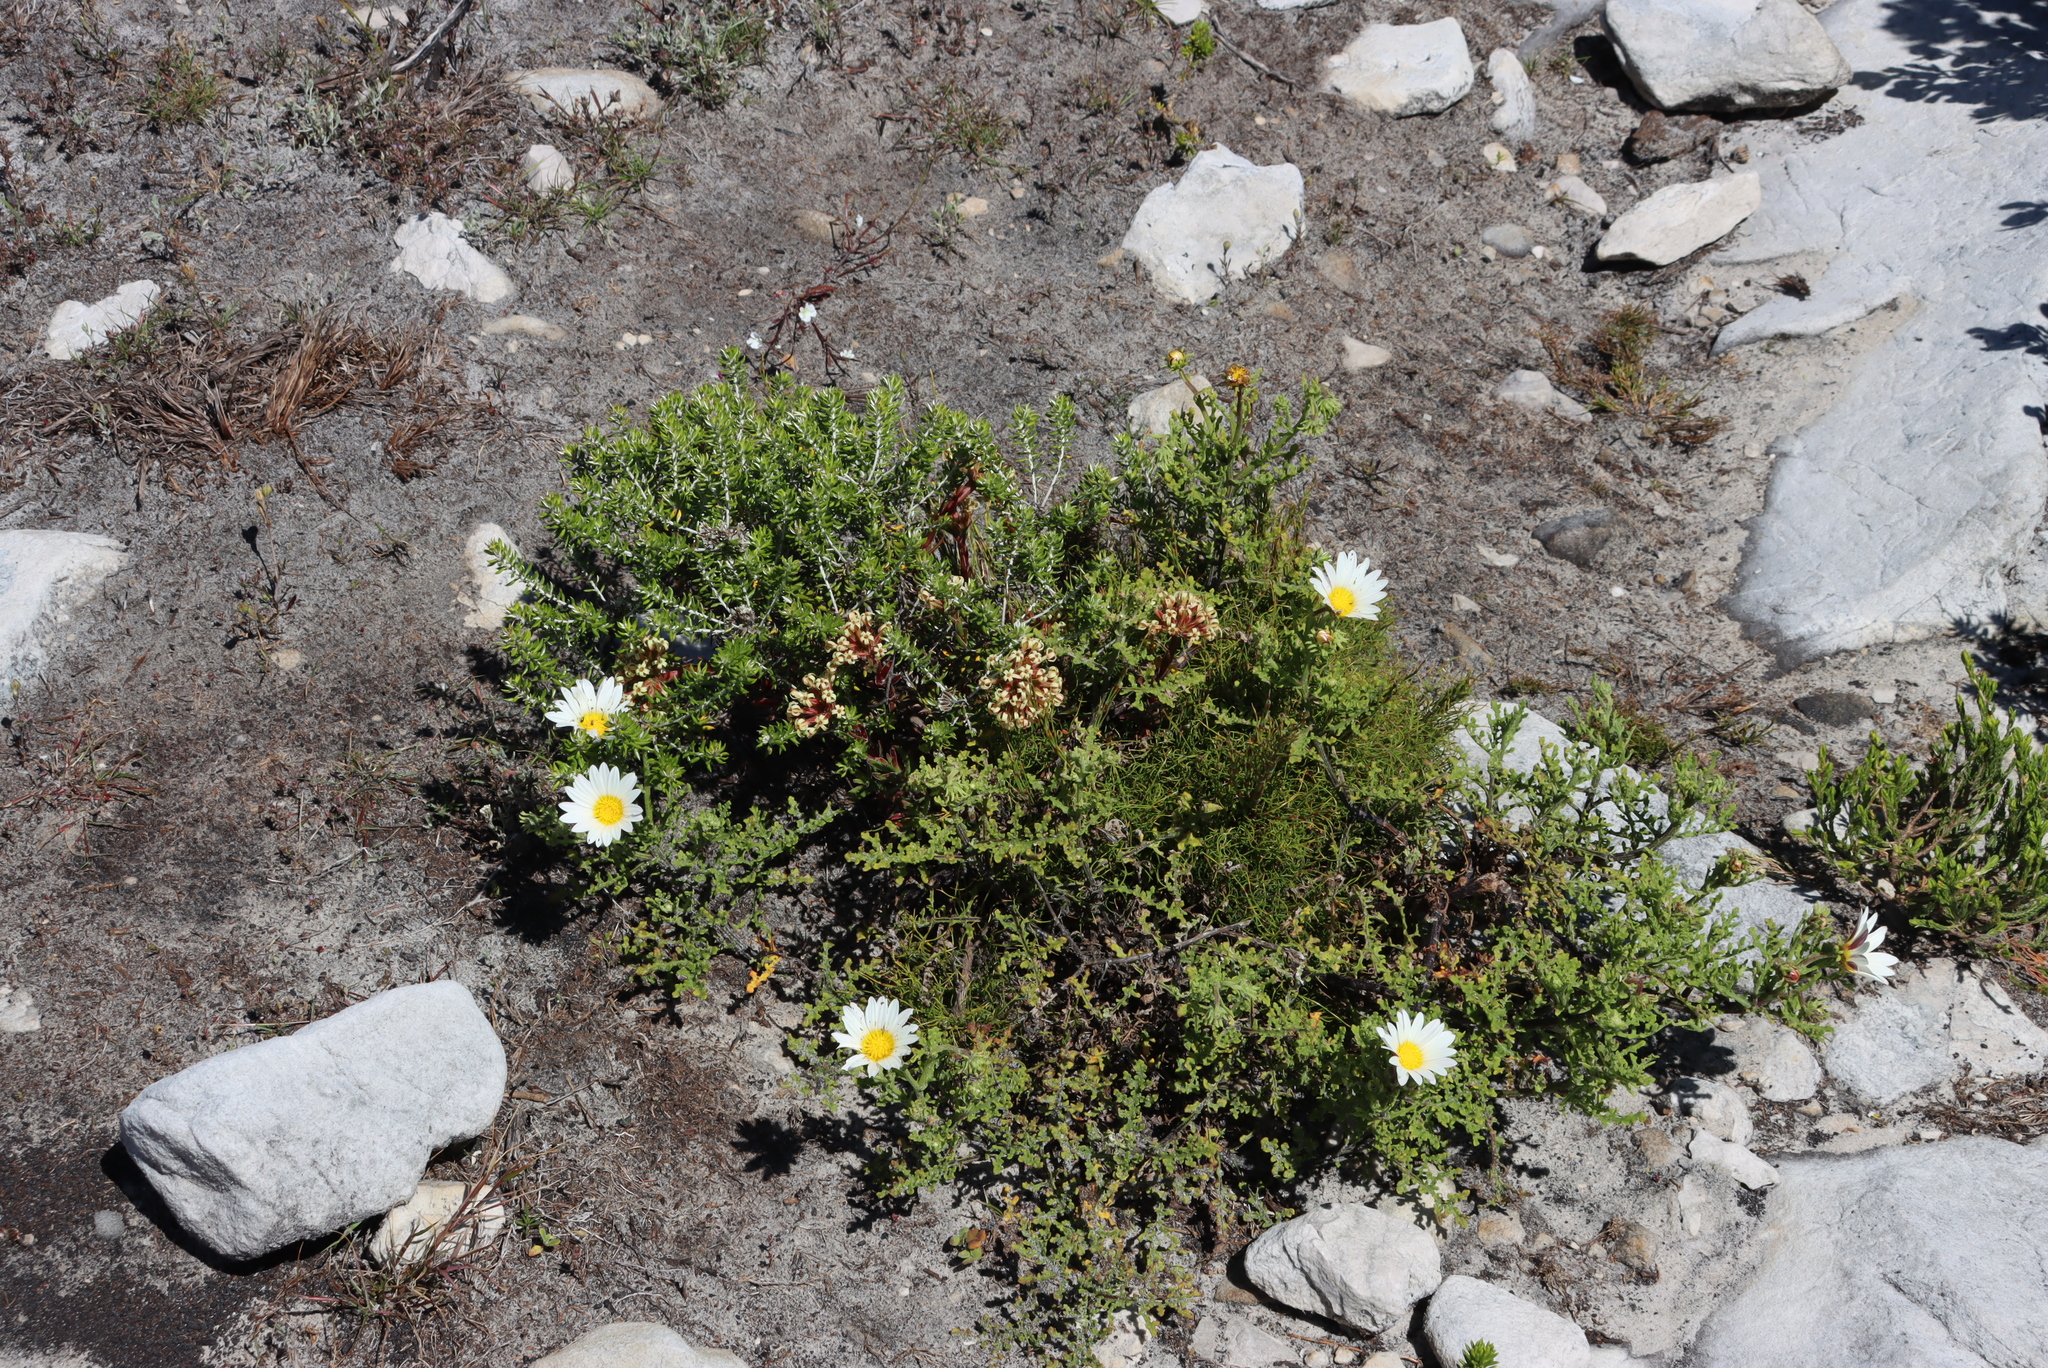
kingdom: Plantae
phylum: Tracheophyta
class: Magnoliopsida
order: Asterales
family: Asteraceae
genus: Arctotis
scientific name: Arctotis aspera
